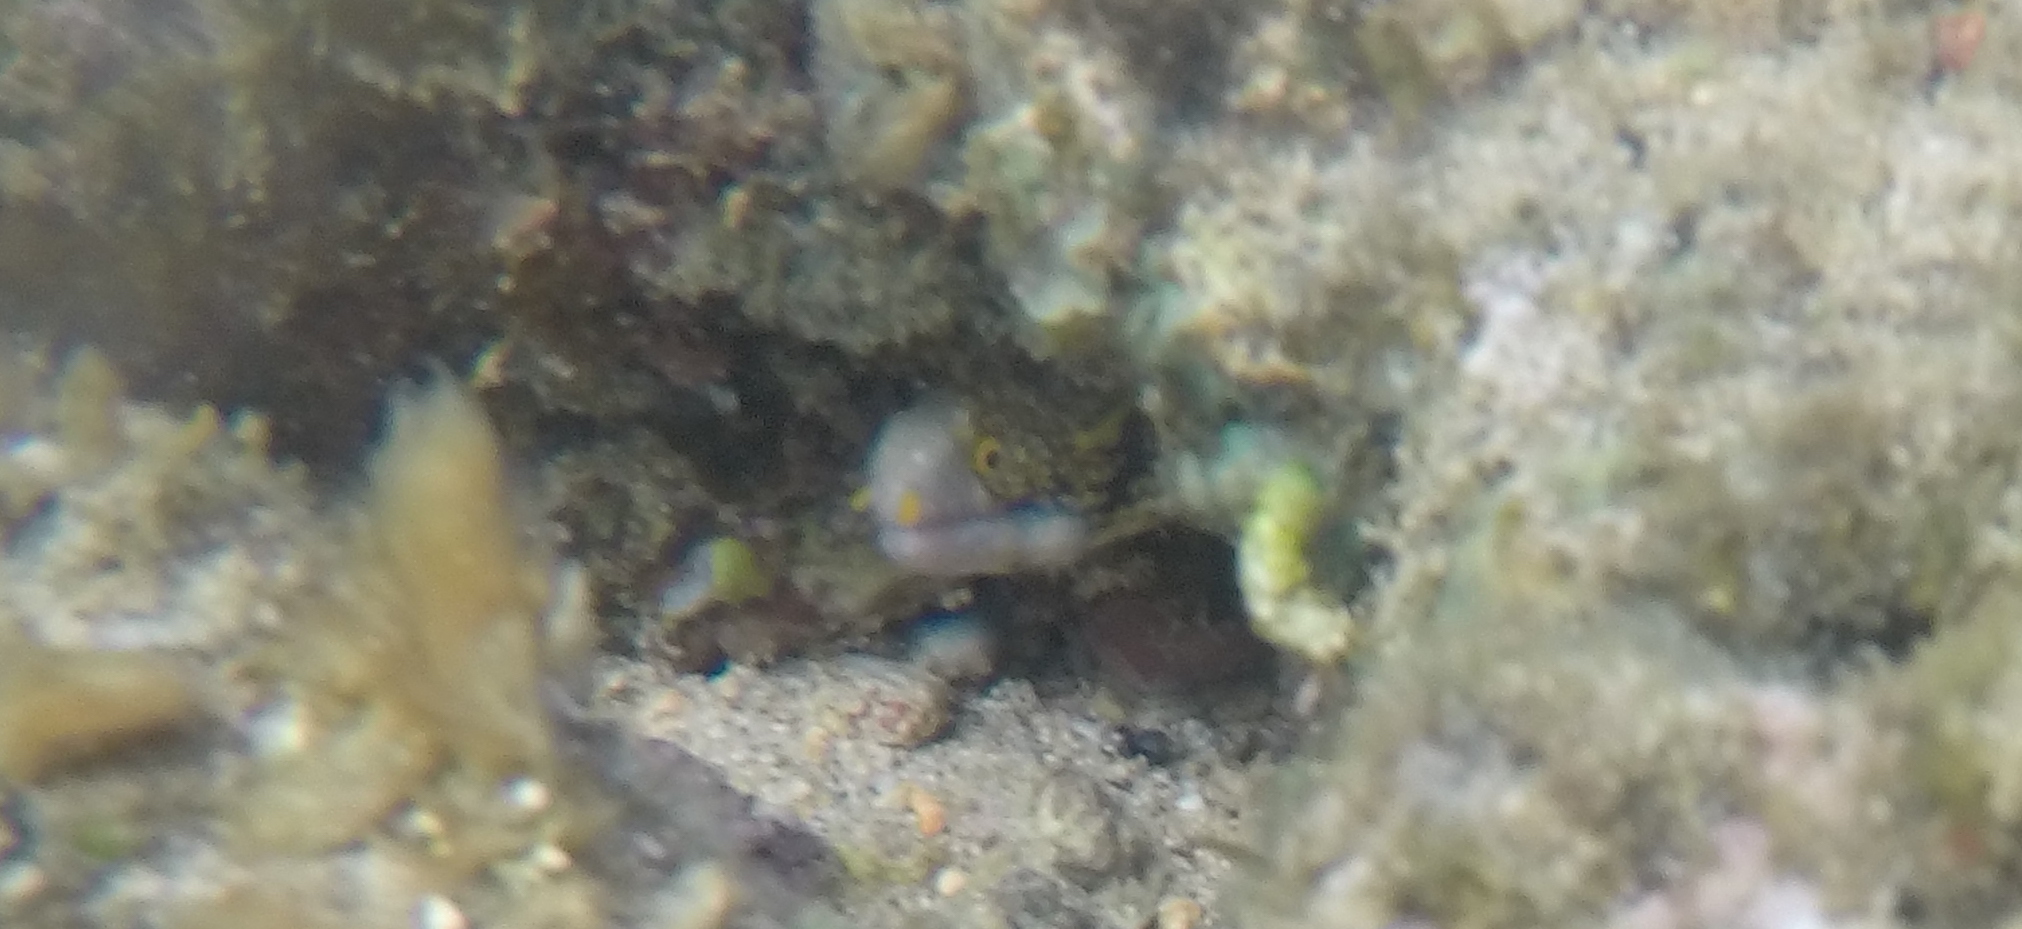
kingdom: Animalia
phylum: Chordata
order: Anguilliformes
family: Muraenidae
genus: Echidna
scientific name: Echidna nebulosa
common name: Snowflake moray
